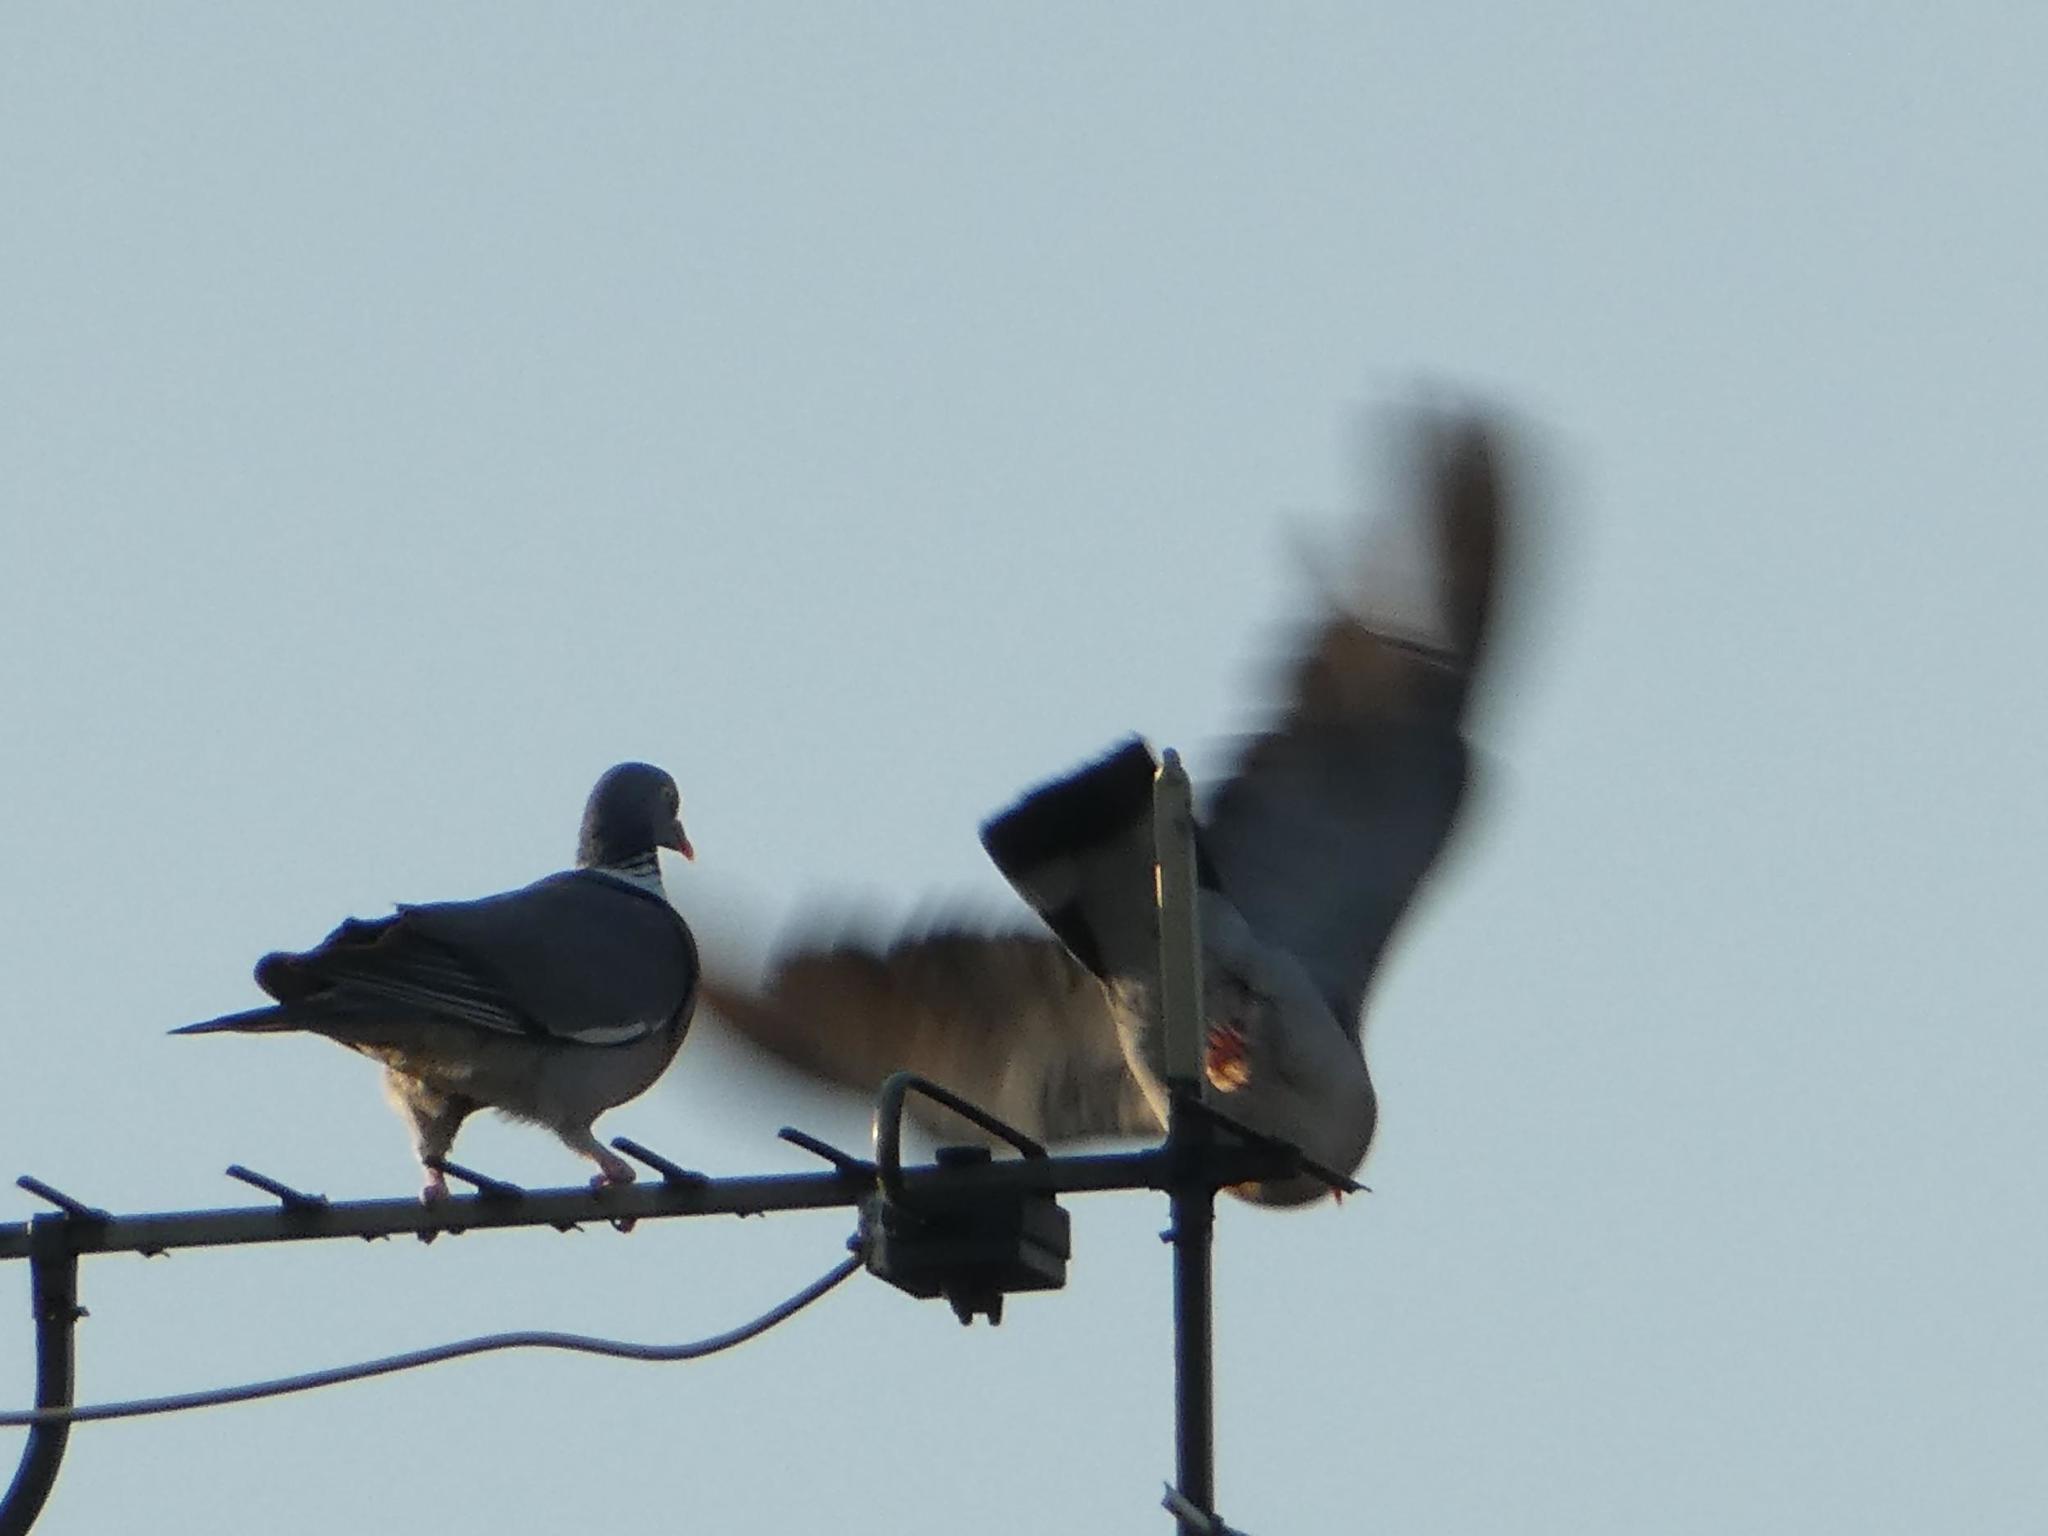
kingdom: Animalia
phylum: Chordata
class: Aves
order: Columbiformes
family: Columbidae
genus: Columba
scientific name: Columba palumbus
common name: Common wood pigeon
